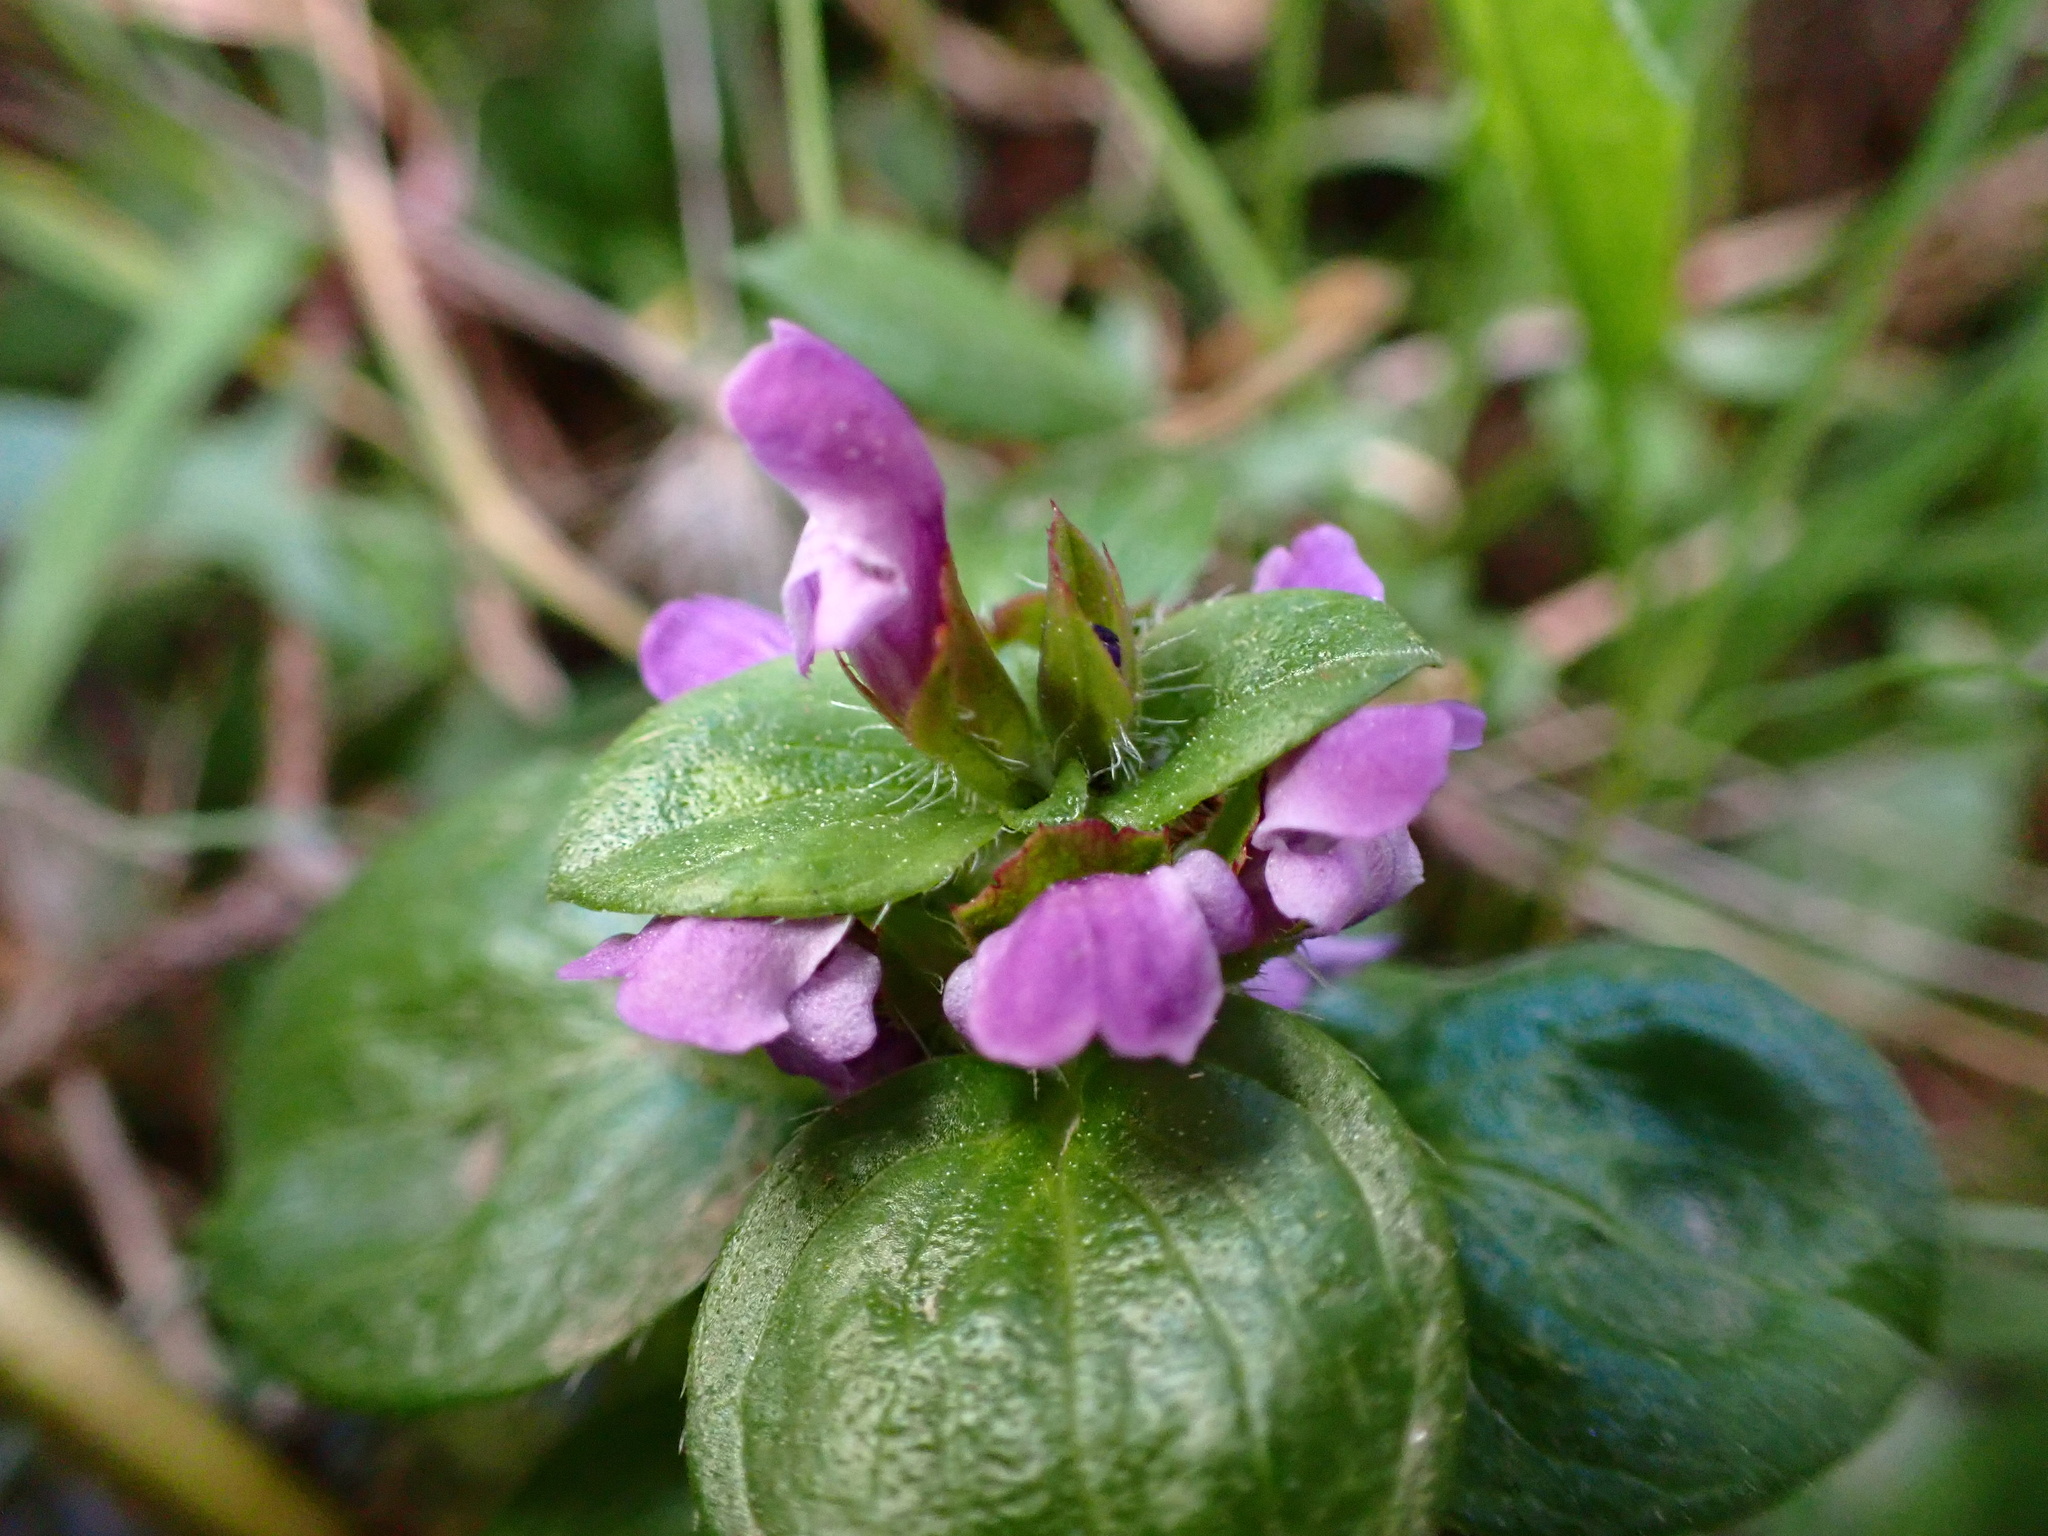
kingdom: Plantae
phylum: Tracheophyta
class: Magnoliopsida
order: Lamiales
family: Lamiaceae
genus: Prunella
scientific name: Prunella vulgaris
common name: Heal-all
